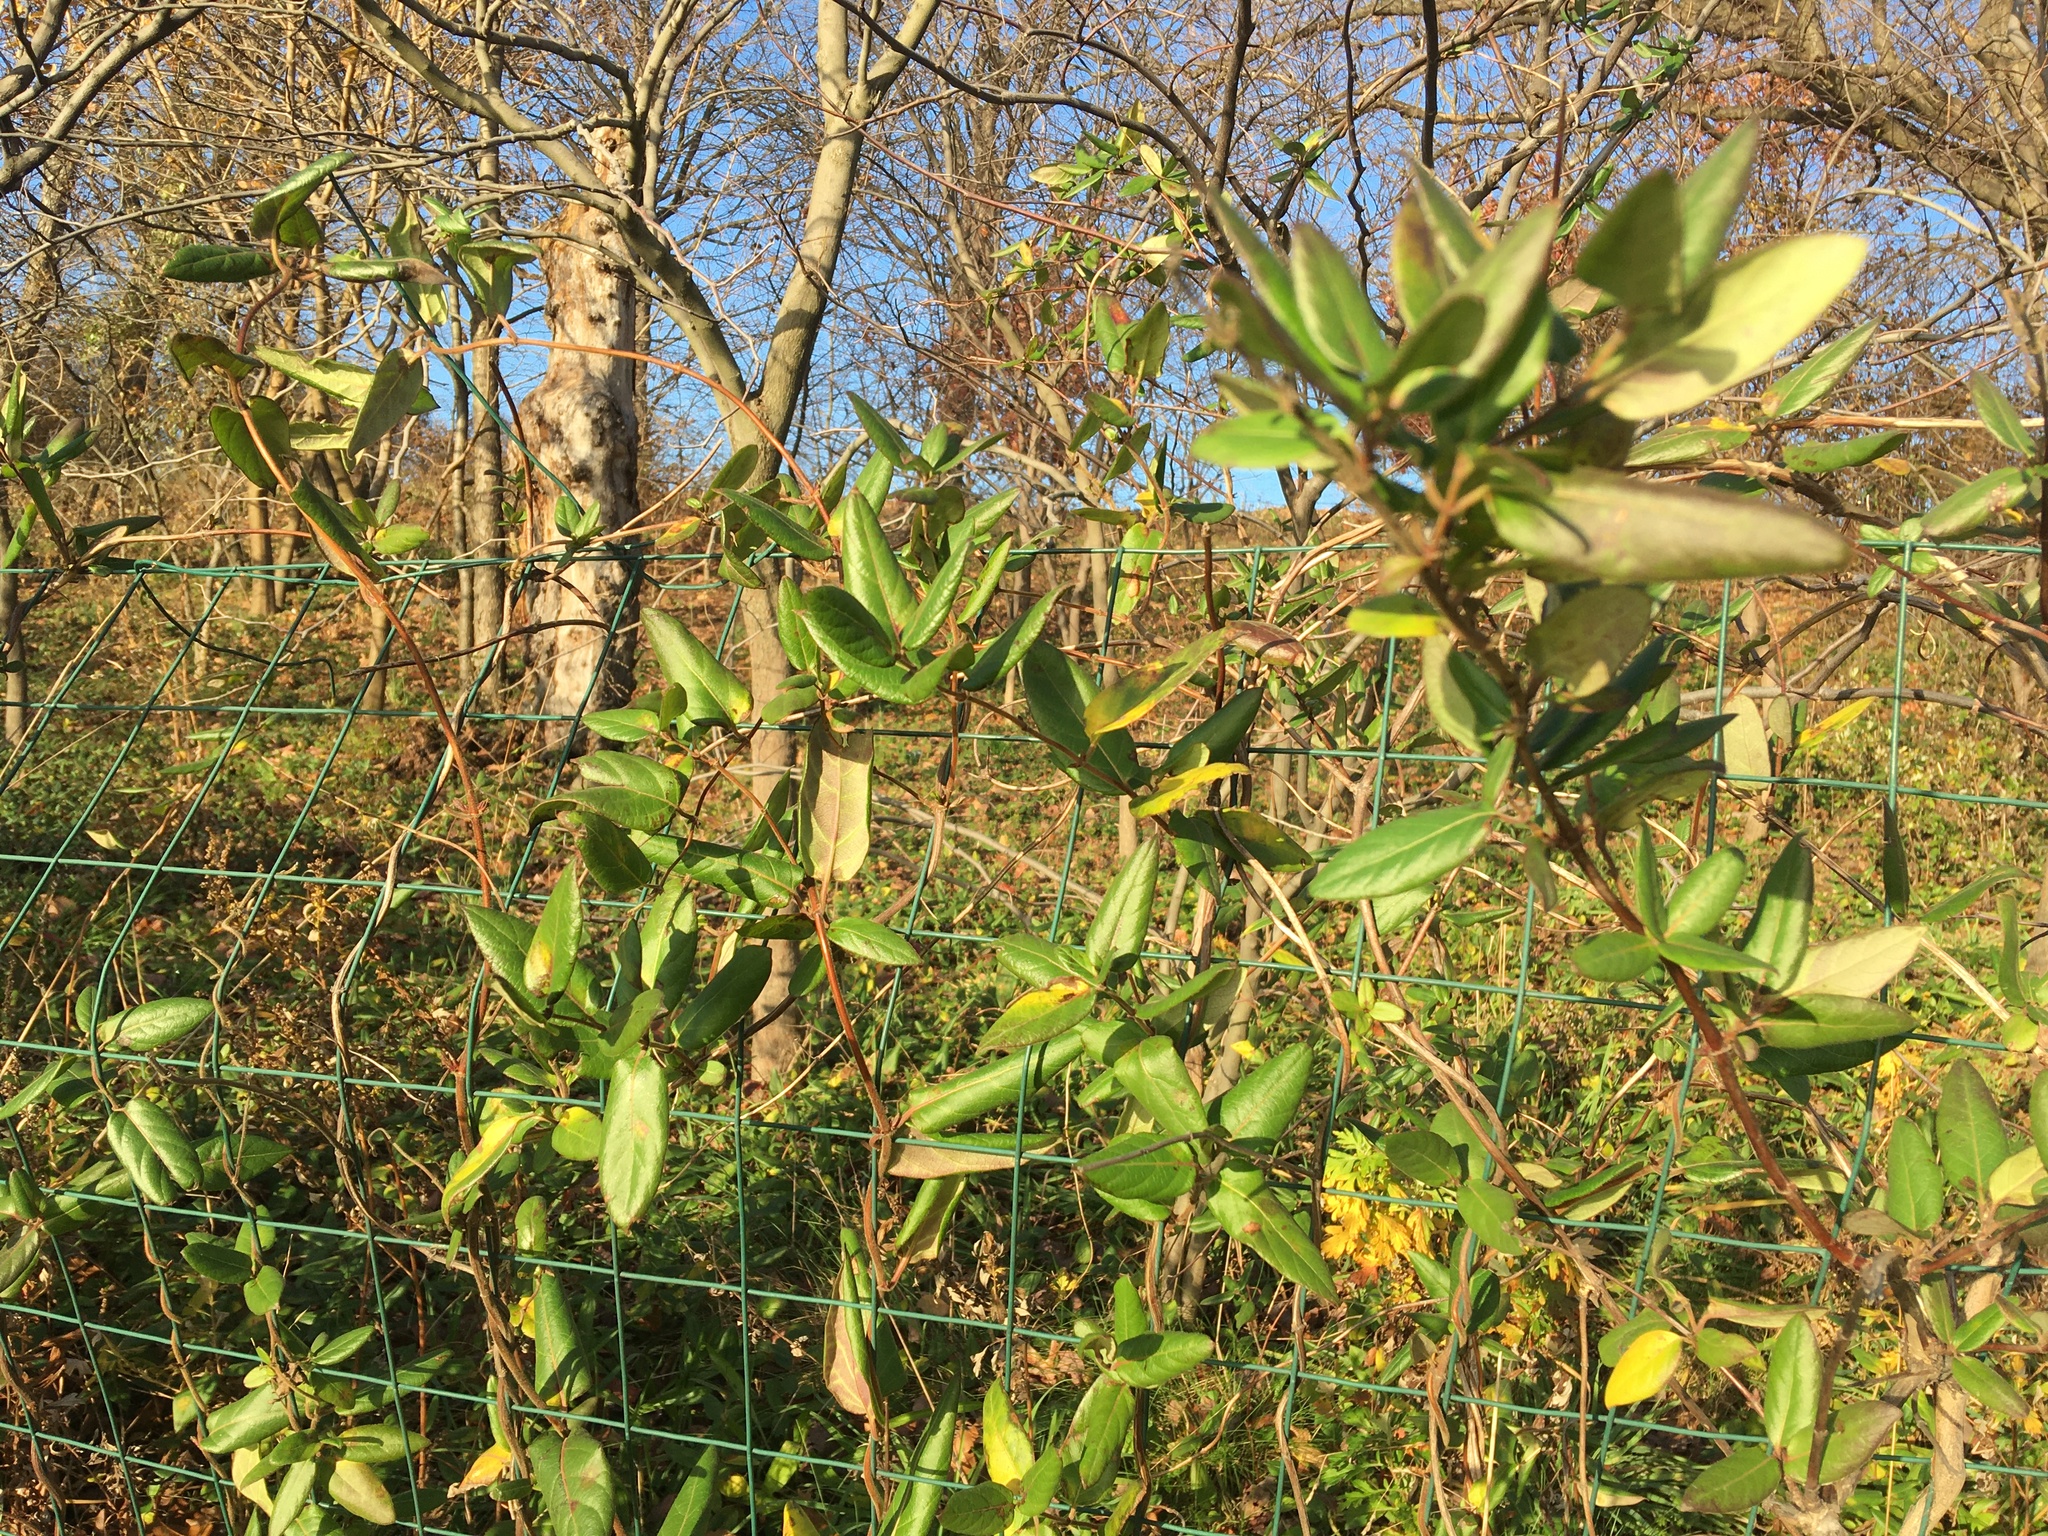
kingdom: Plantae
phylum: Tracheophyta
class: Magnoliopsida
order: Dipsacales
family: Caprifoliaceae
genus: Lonicera
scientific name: Lonicera japonica
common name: Japanese honeysuckle
